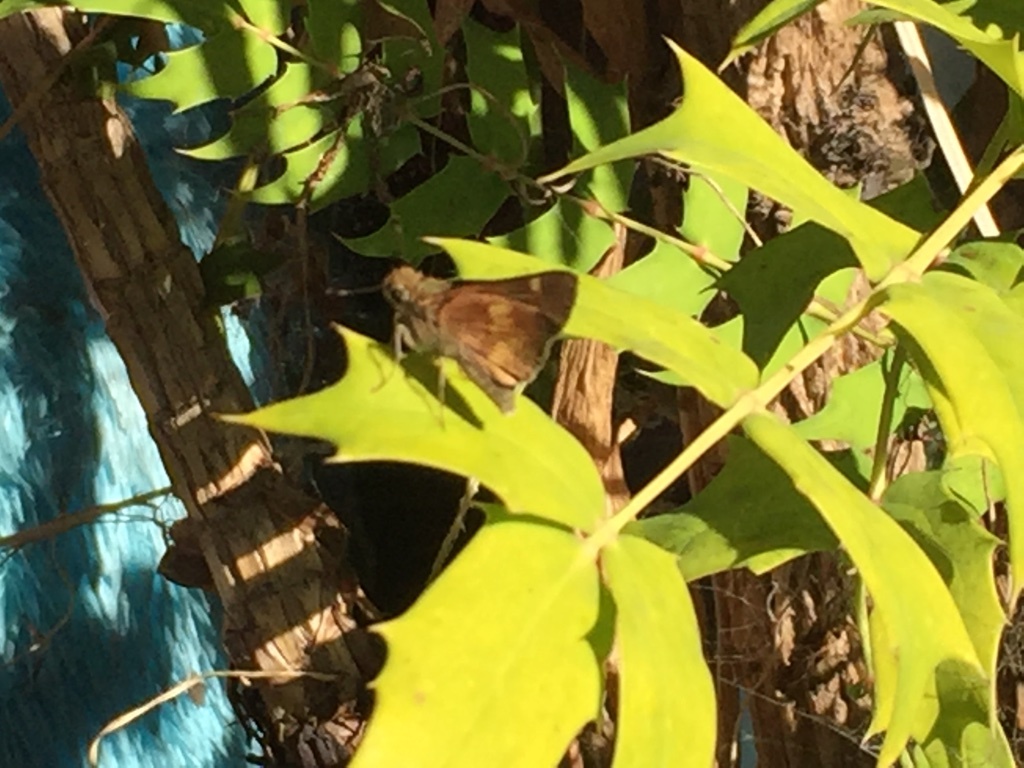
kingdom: Animalia
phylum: Arthropoda
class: Insecta
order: Lepidoptera
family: Hesperiidae
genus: Lon
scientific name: Lon melane
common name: Umber skipper
